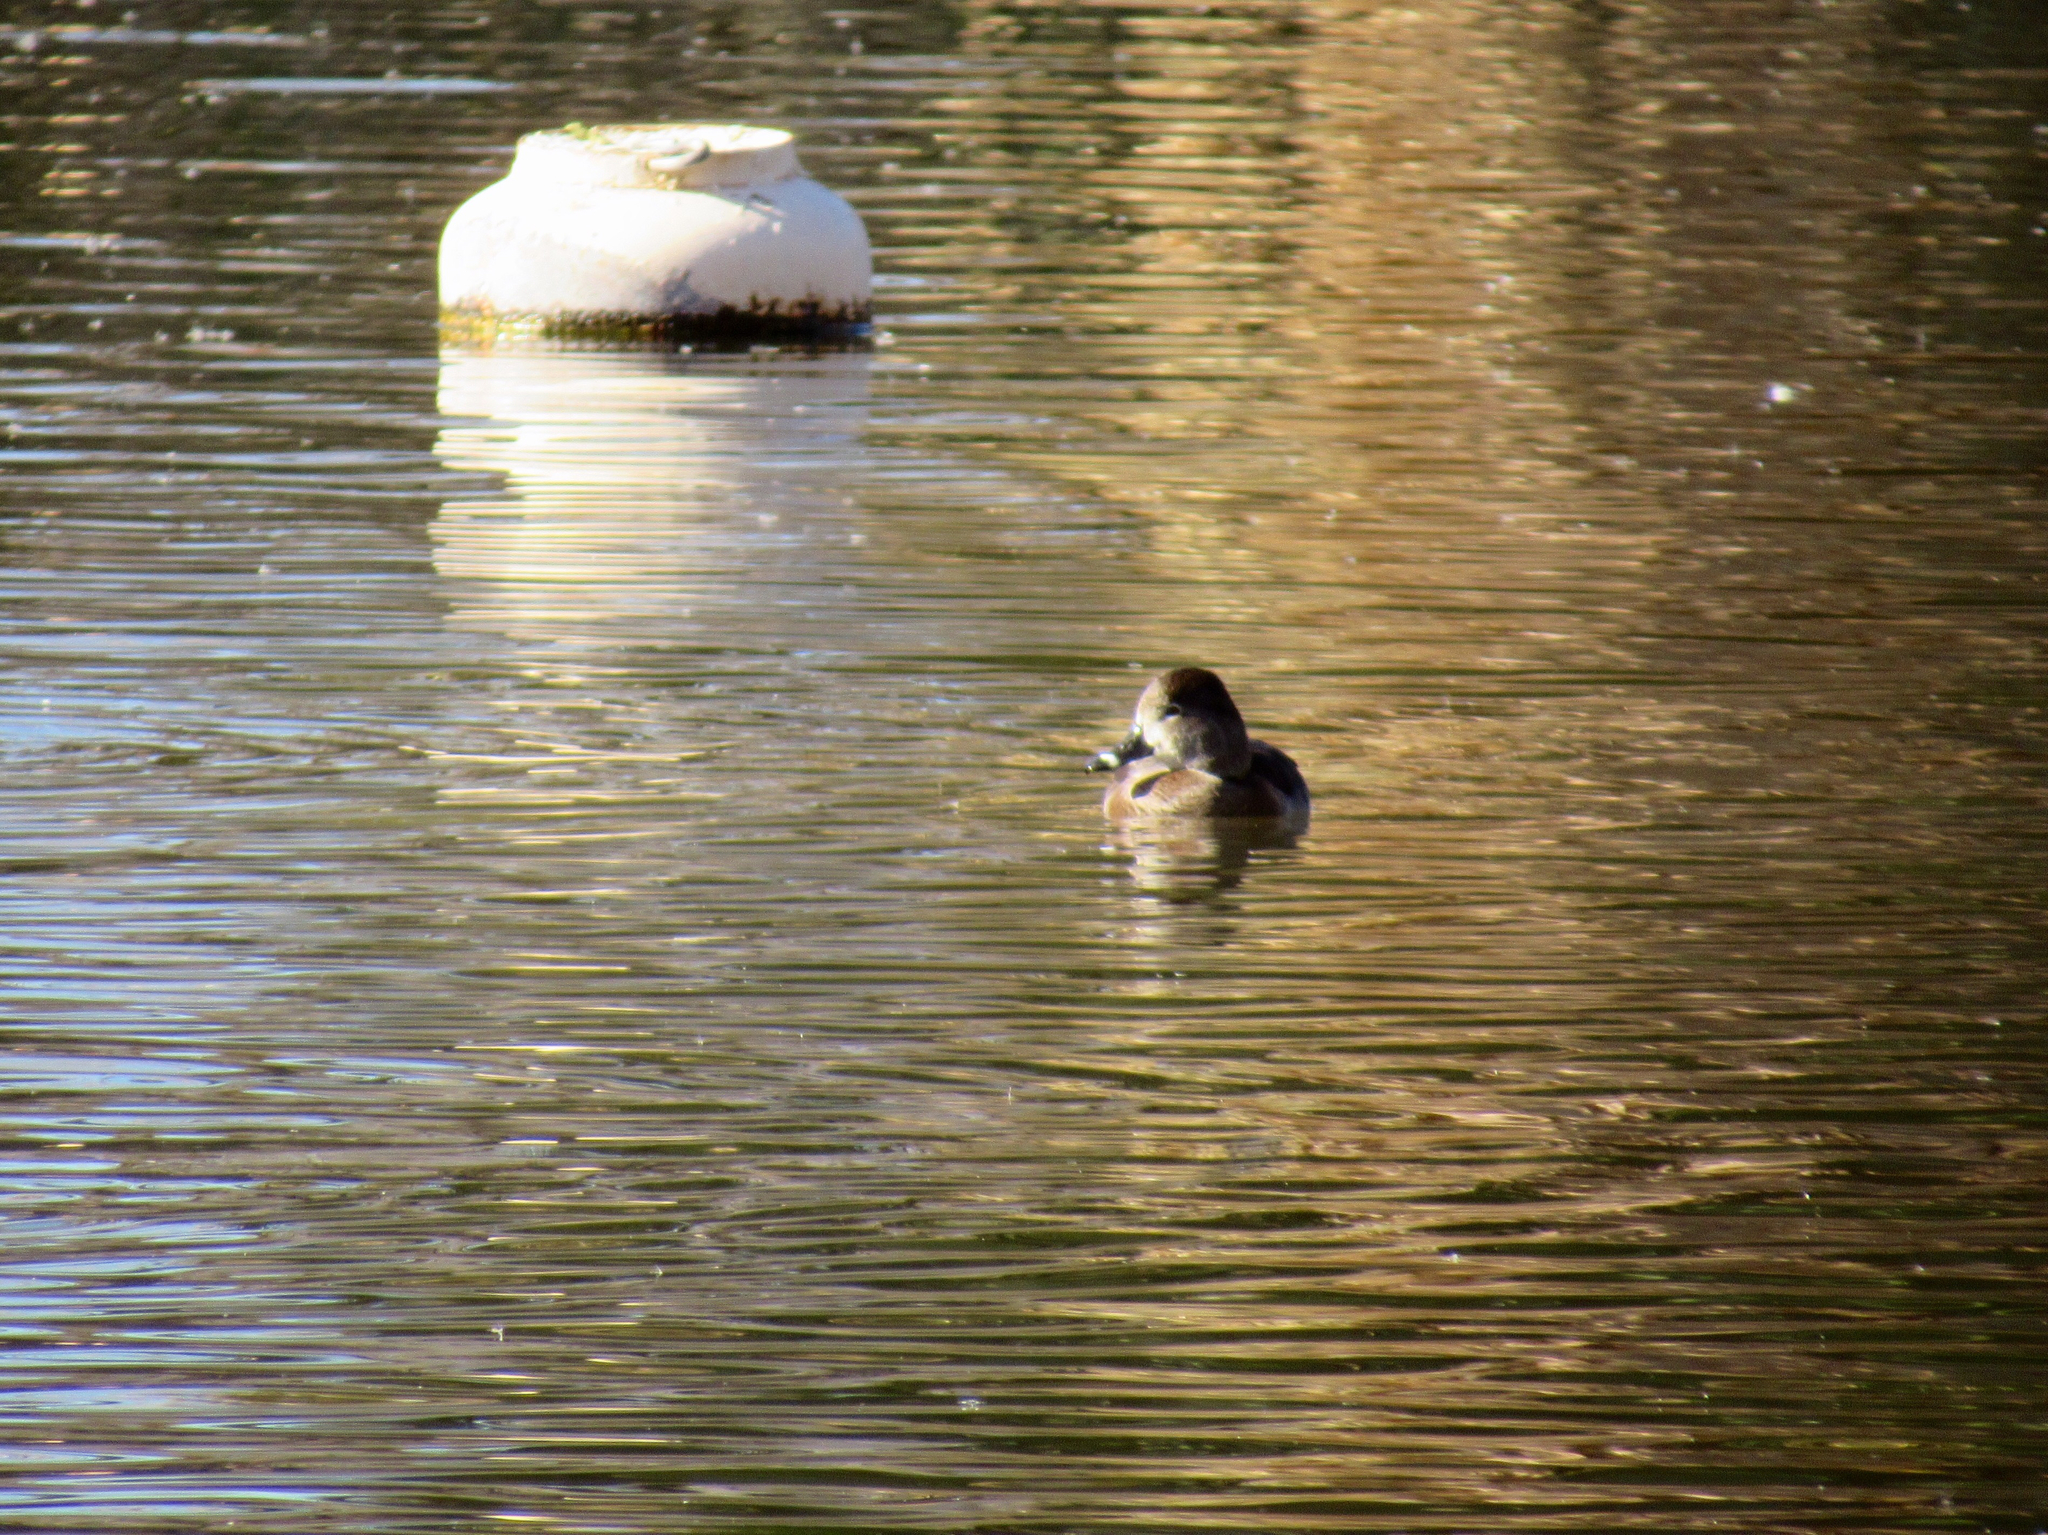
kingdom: Animalia
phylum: Chordata
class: Aves
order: Anseriformes
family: Anatidae
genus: Aythya
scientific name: Aythya collaris
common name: Ring-necked duck
